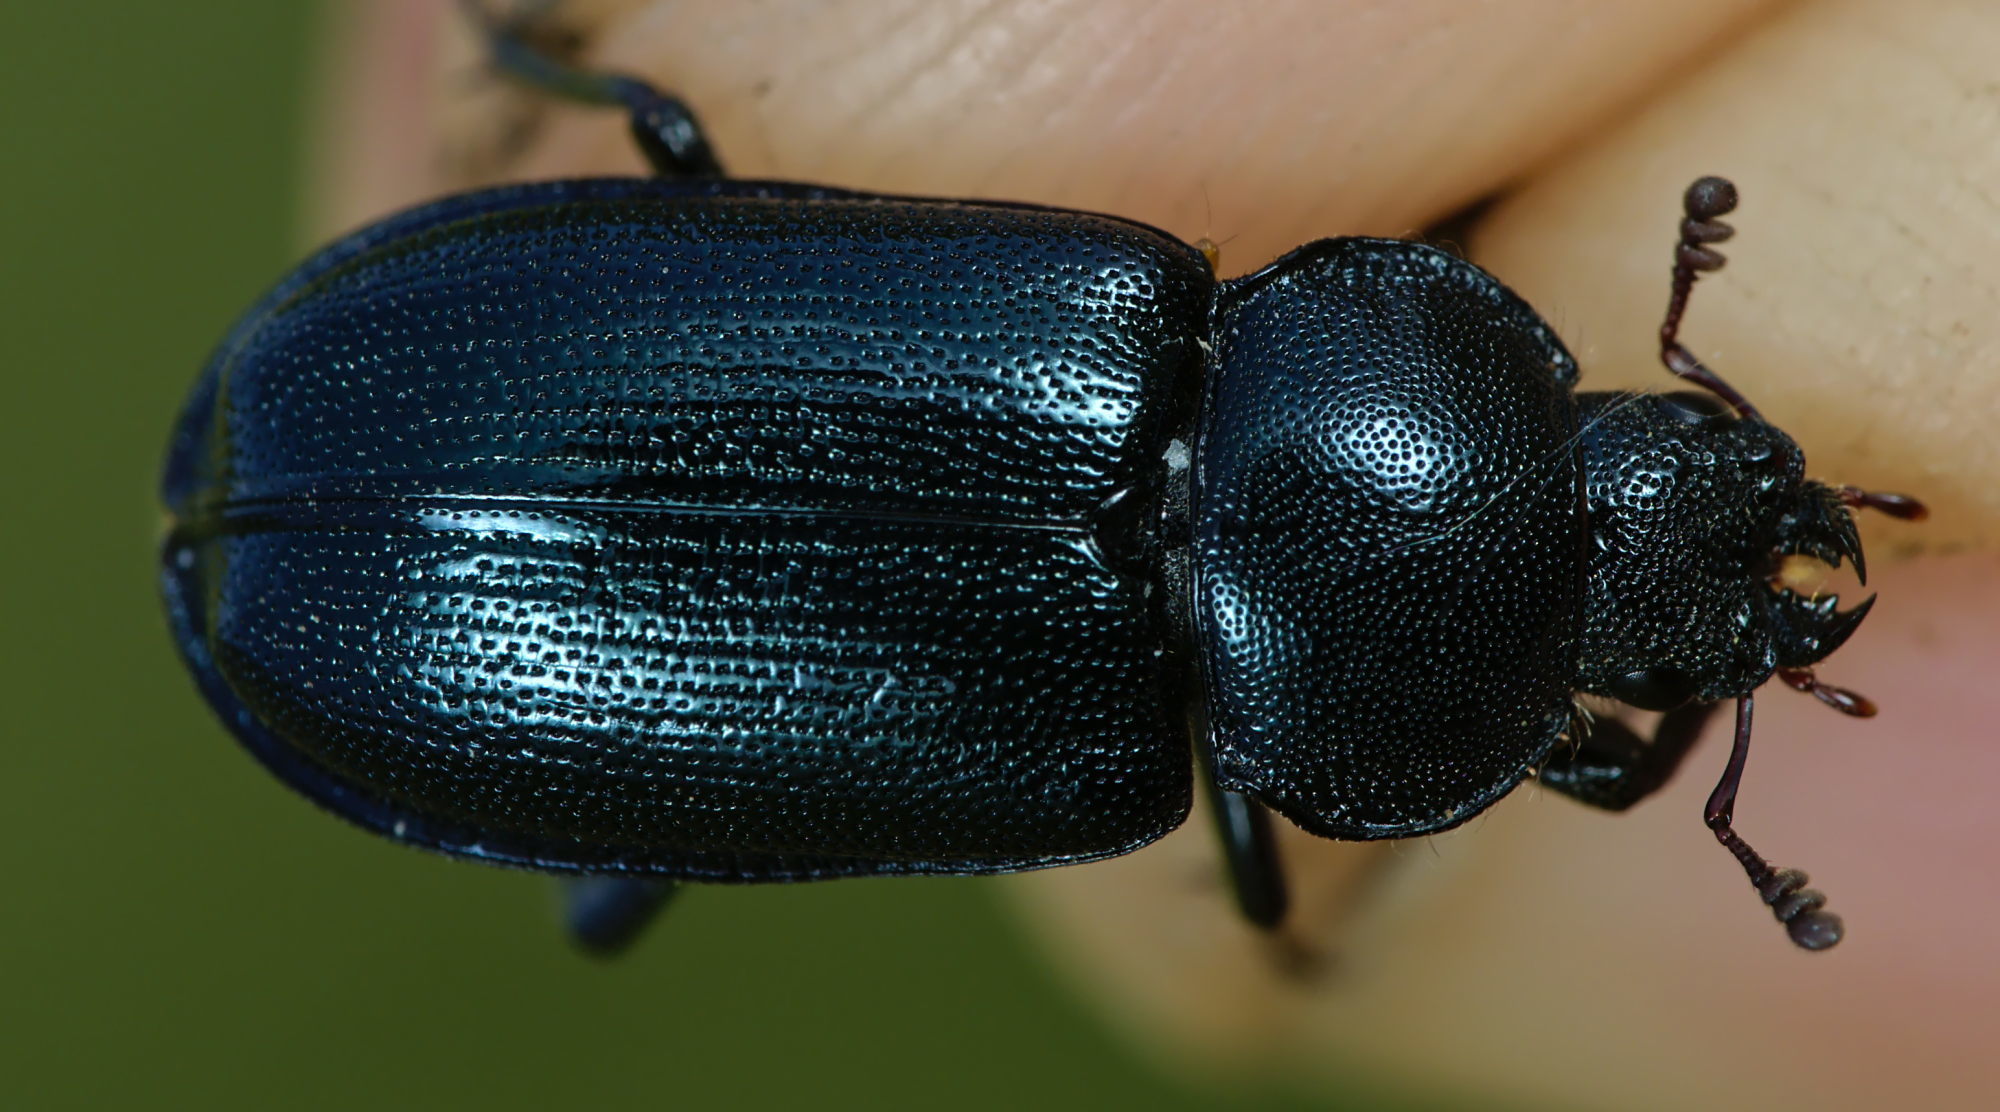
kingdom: Animalia
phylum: Arthropoda
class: Insecta
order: Coleoptera
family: Lucanidae
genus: Platycerus
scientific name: Platycerus caraboides
